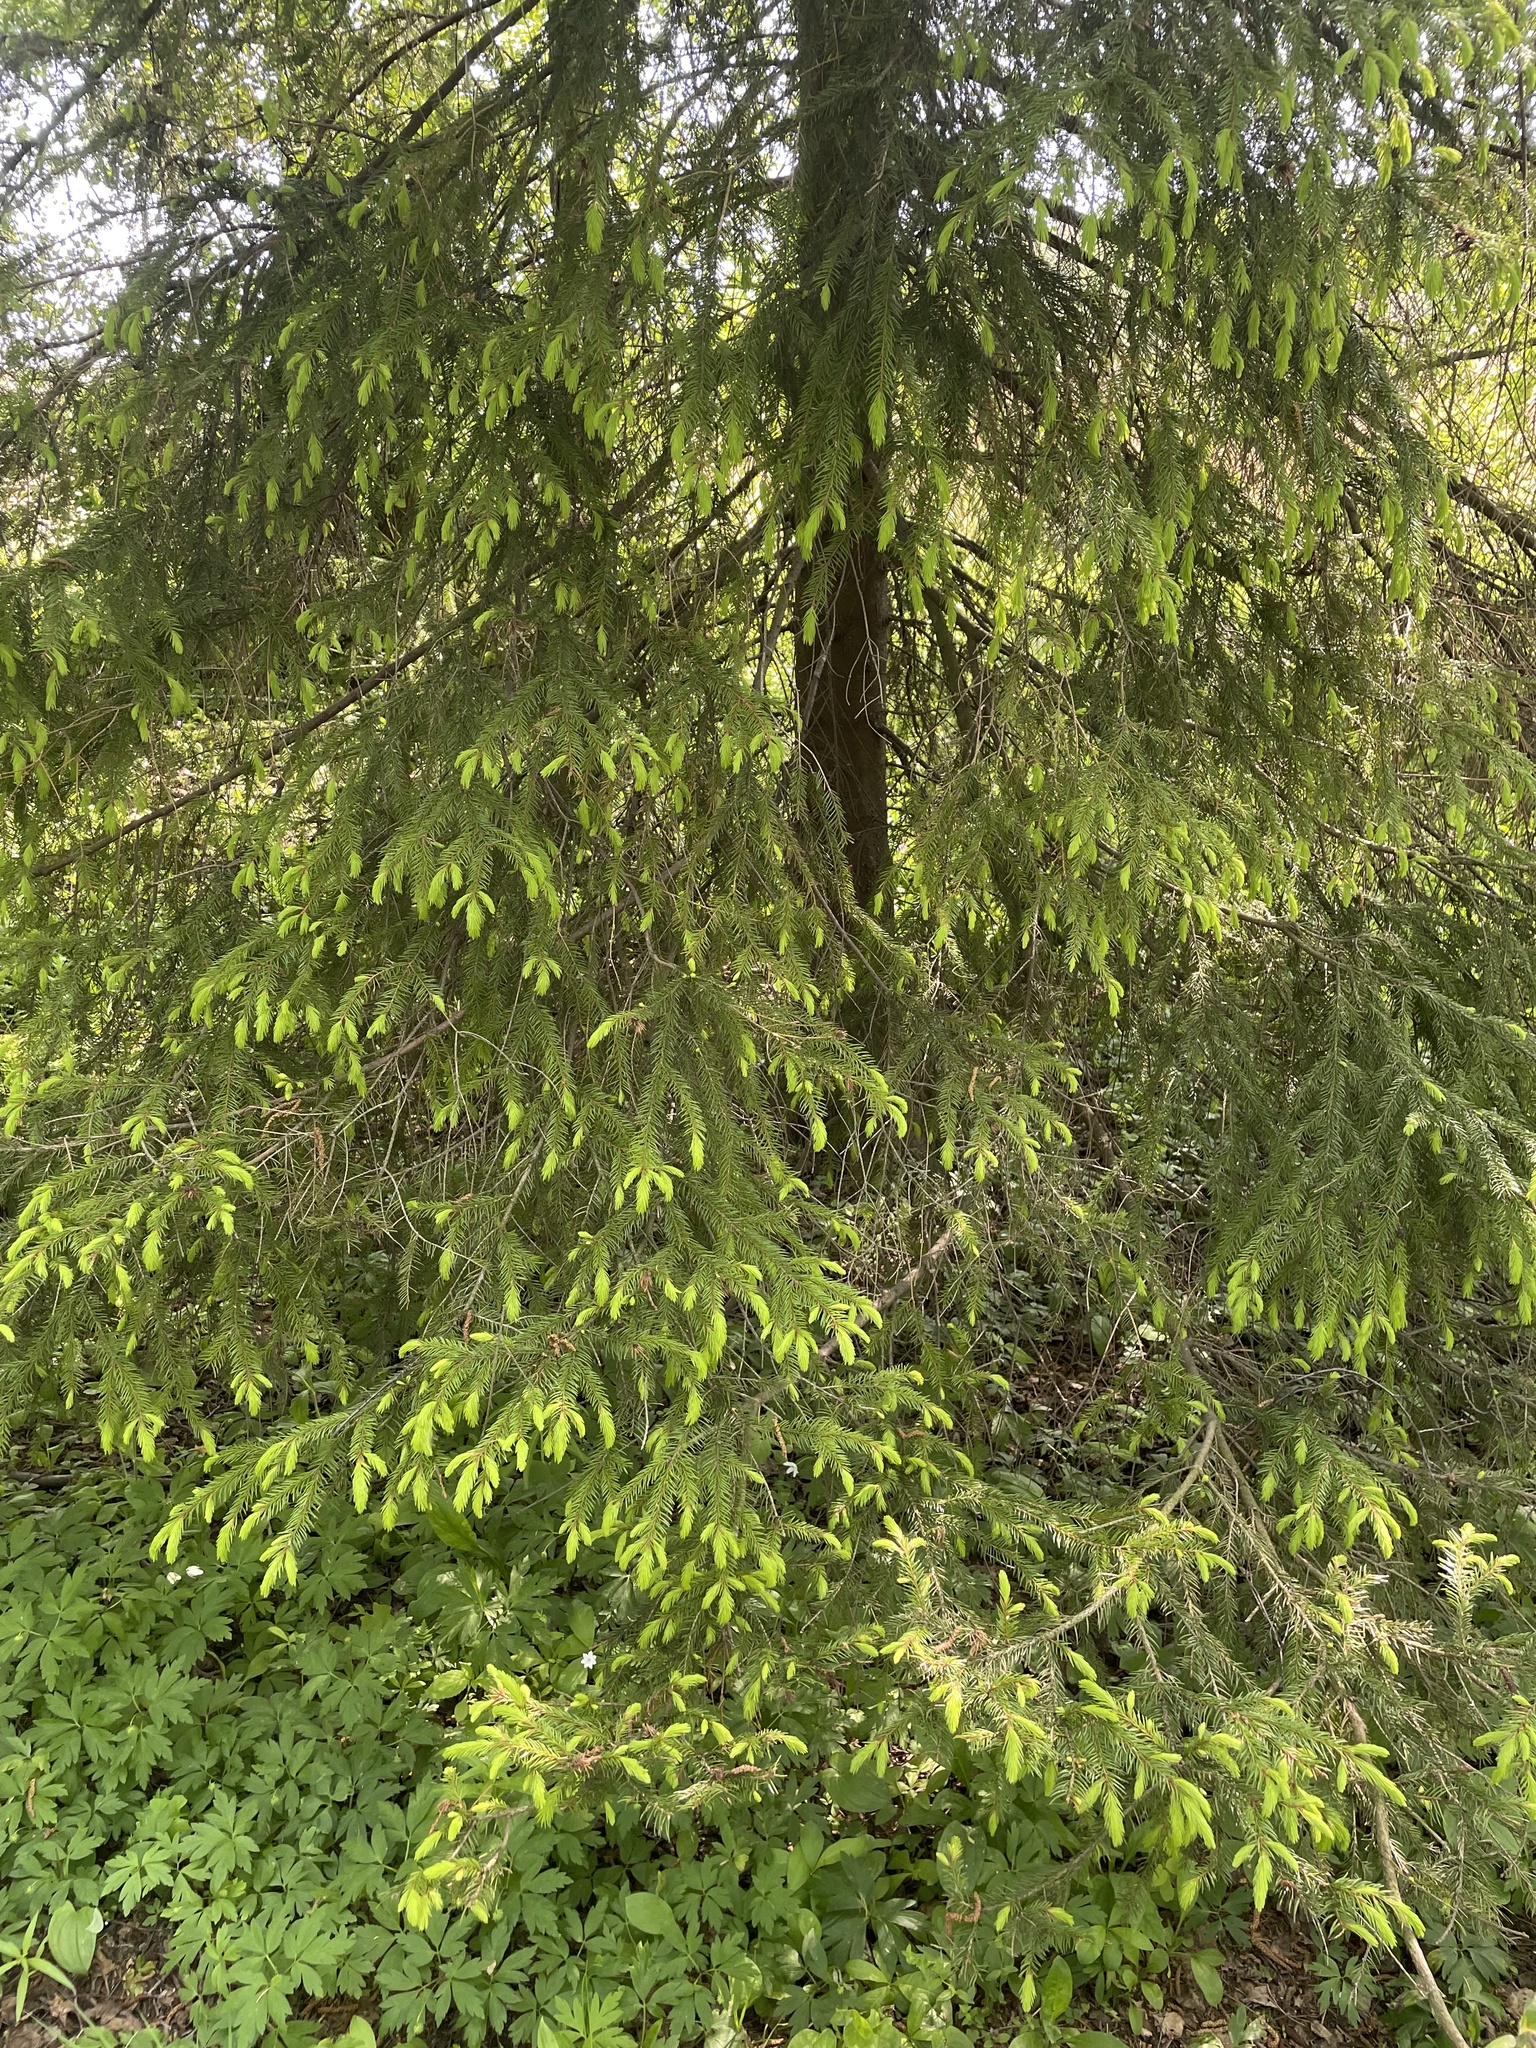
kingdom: Plantae
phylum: Tracheophyta
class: Pinopsida
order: Pinales
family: Pinaceae
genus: Picea
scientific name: Picea abies
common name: Norway spruce
